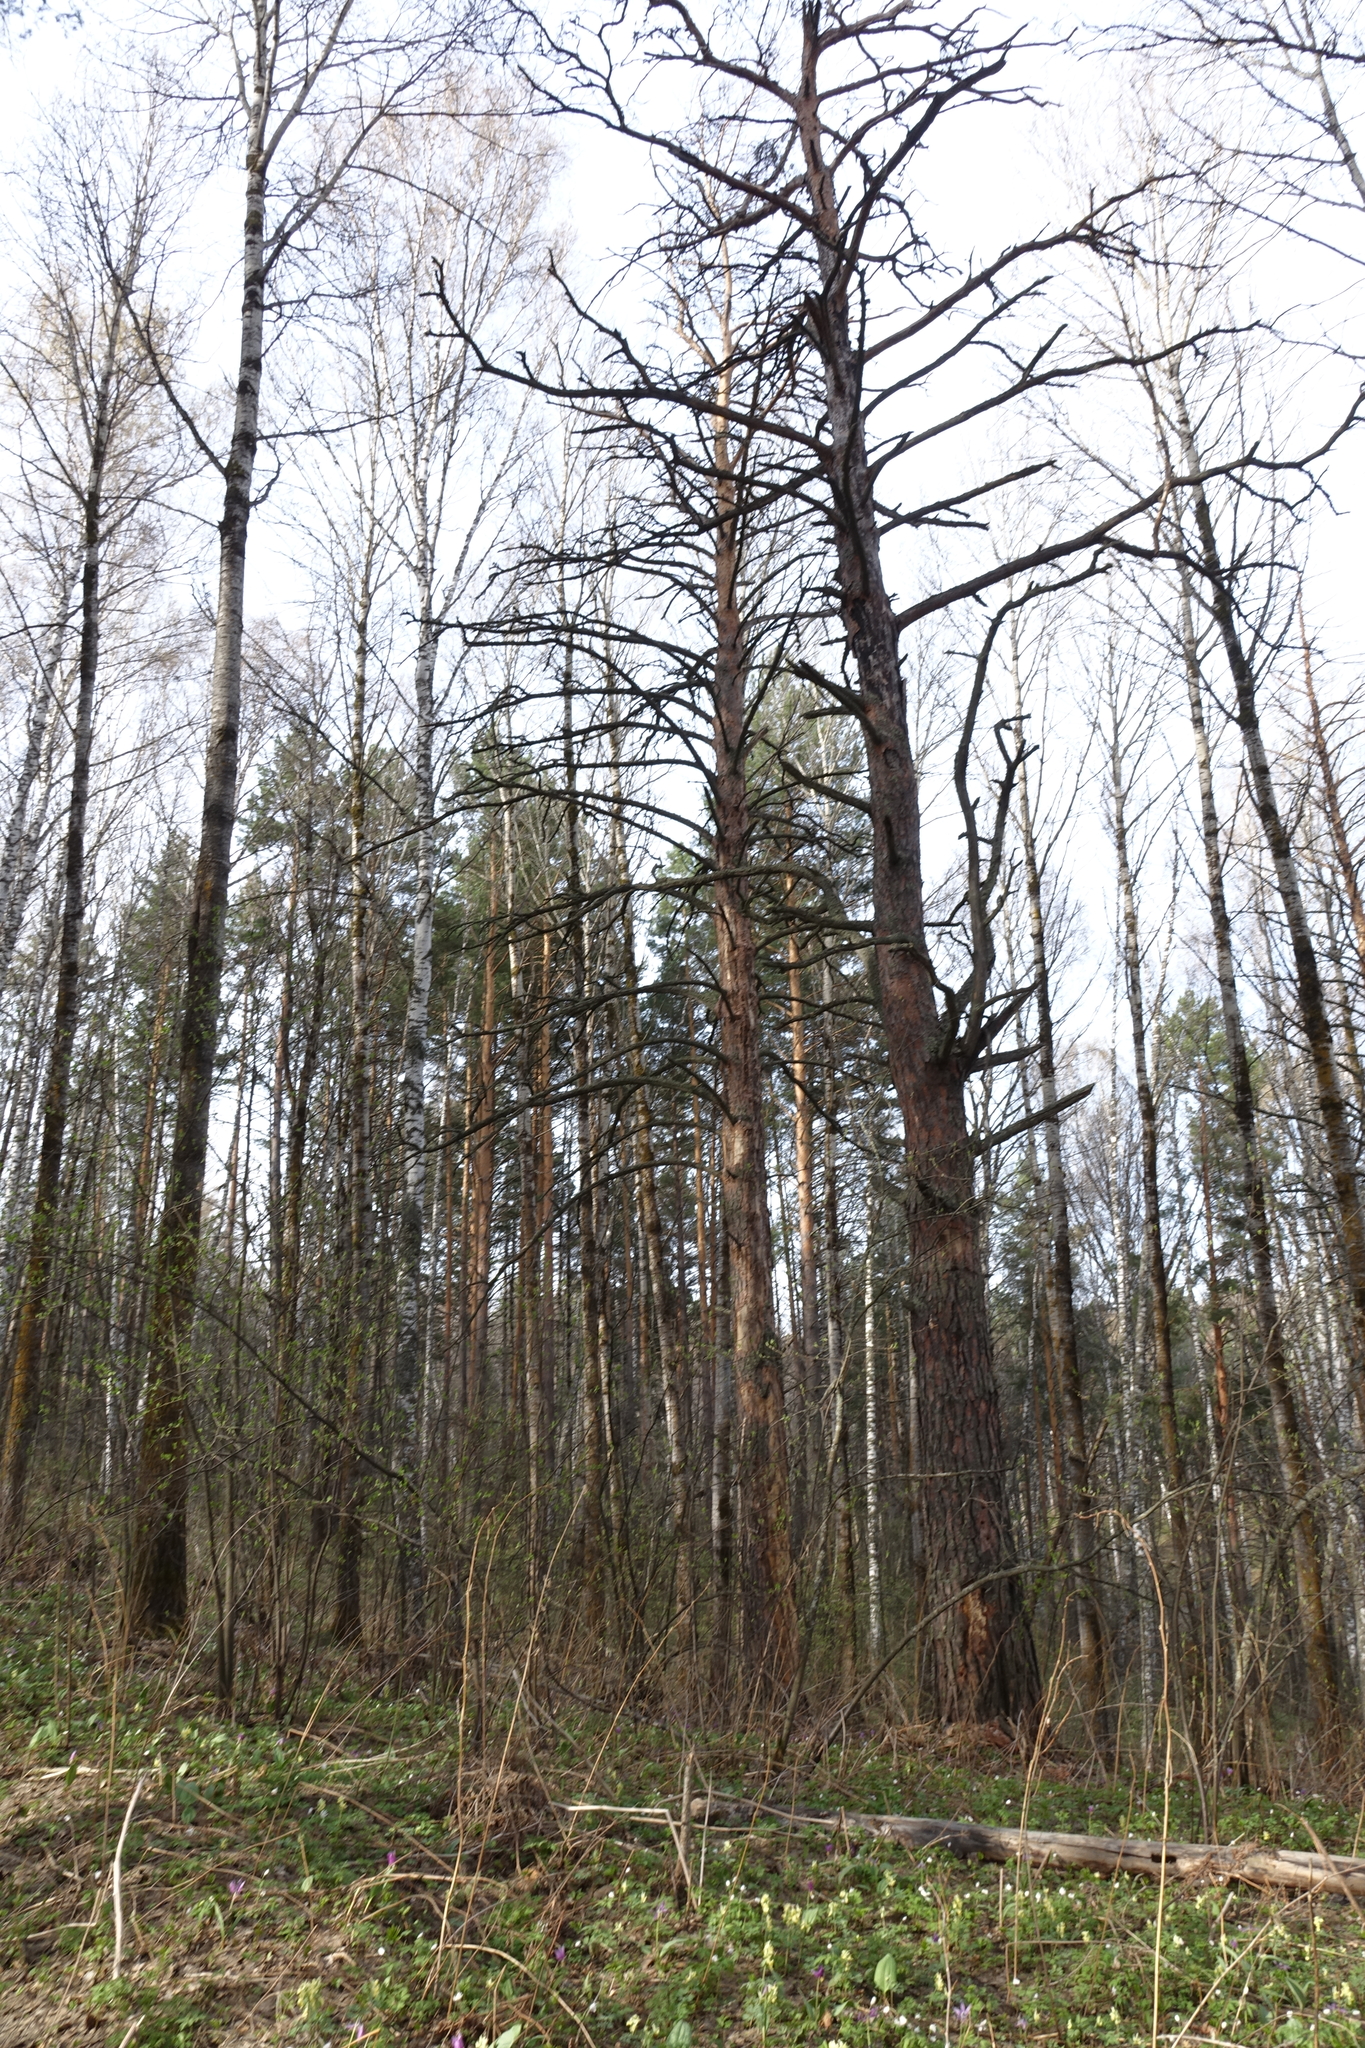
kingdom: Plantae
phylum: Tracheophyta
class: Pinopsida
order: Pinales
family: Pinaceae
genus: Pinus
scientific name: Pinus sylvestris
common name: Scots pine
